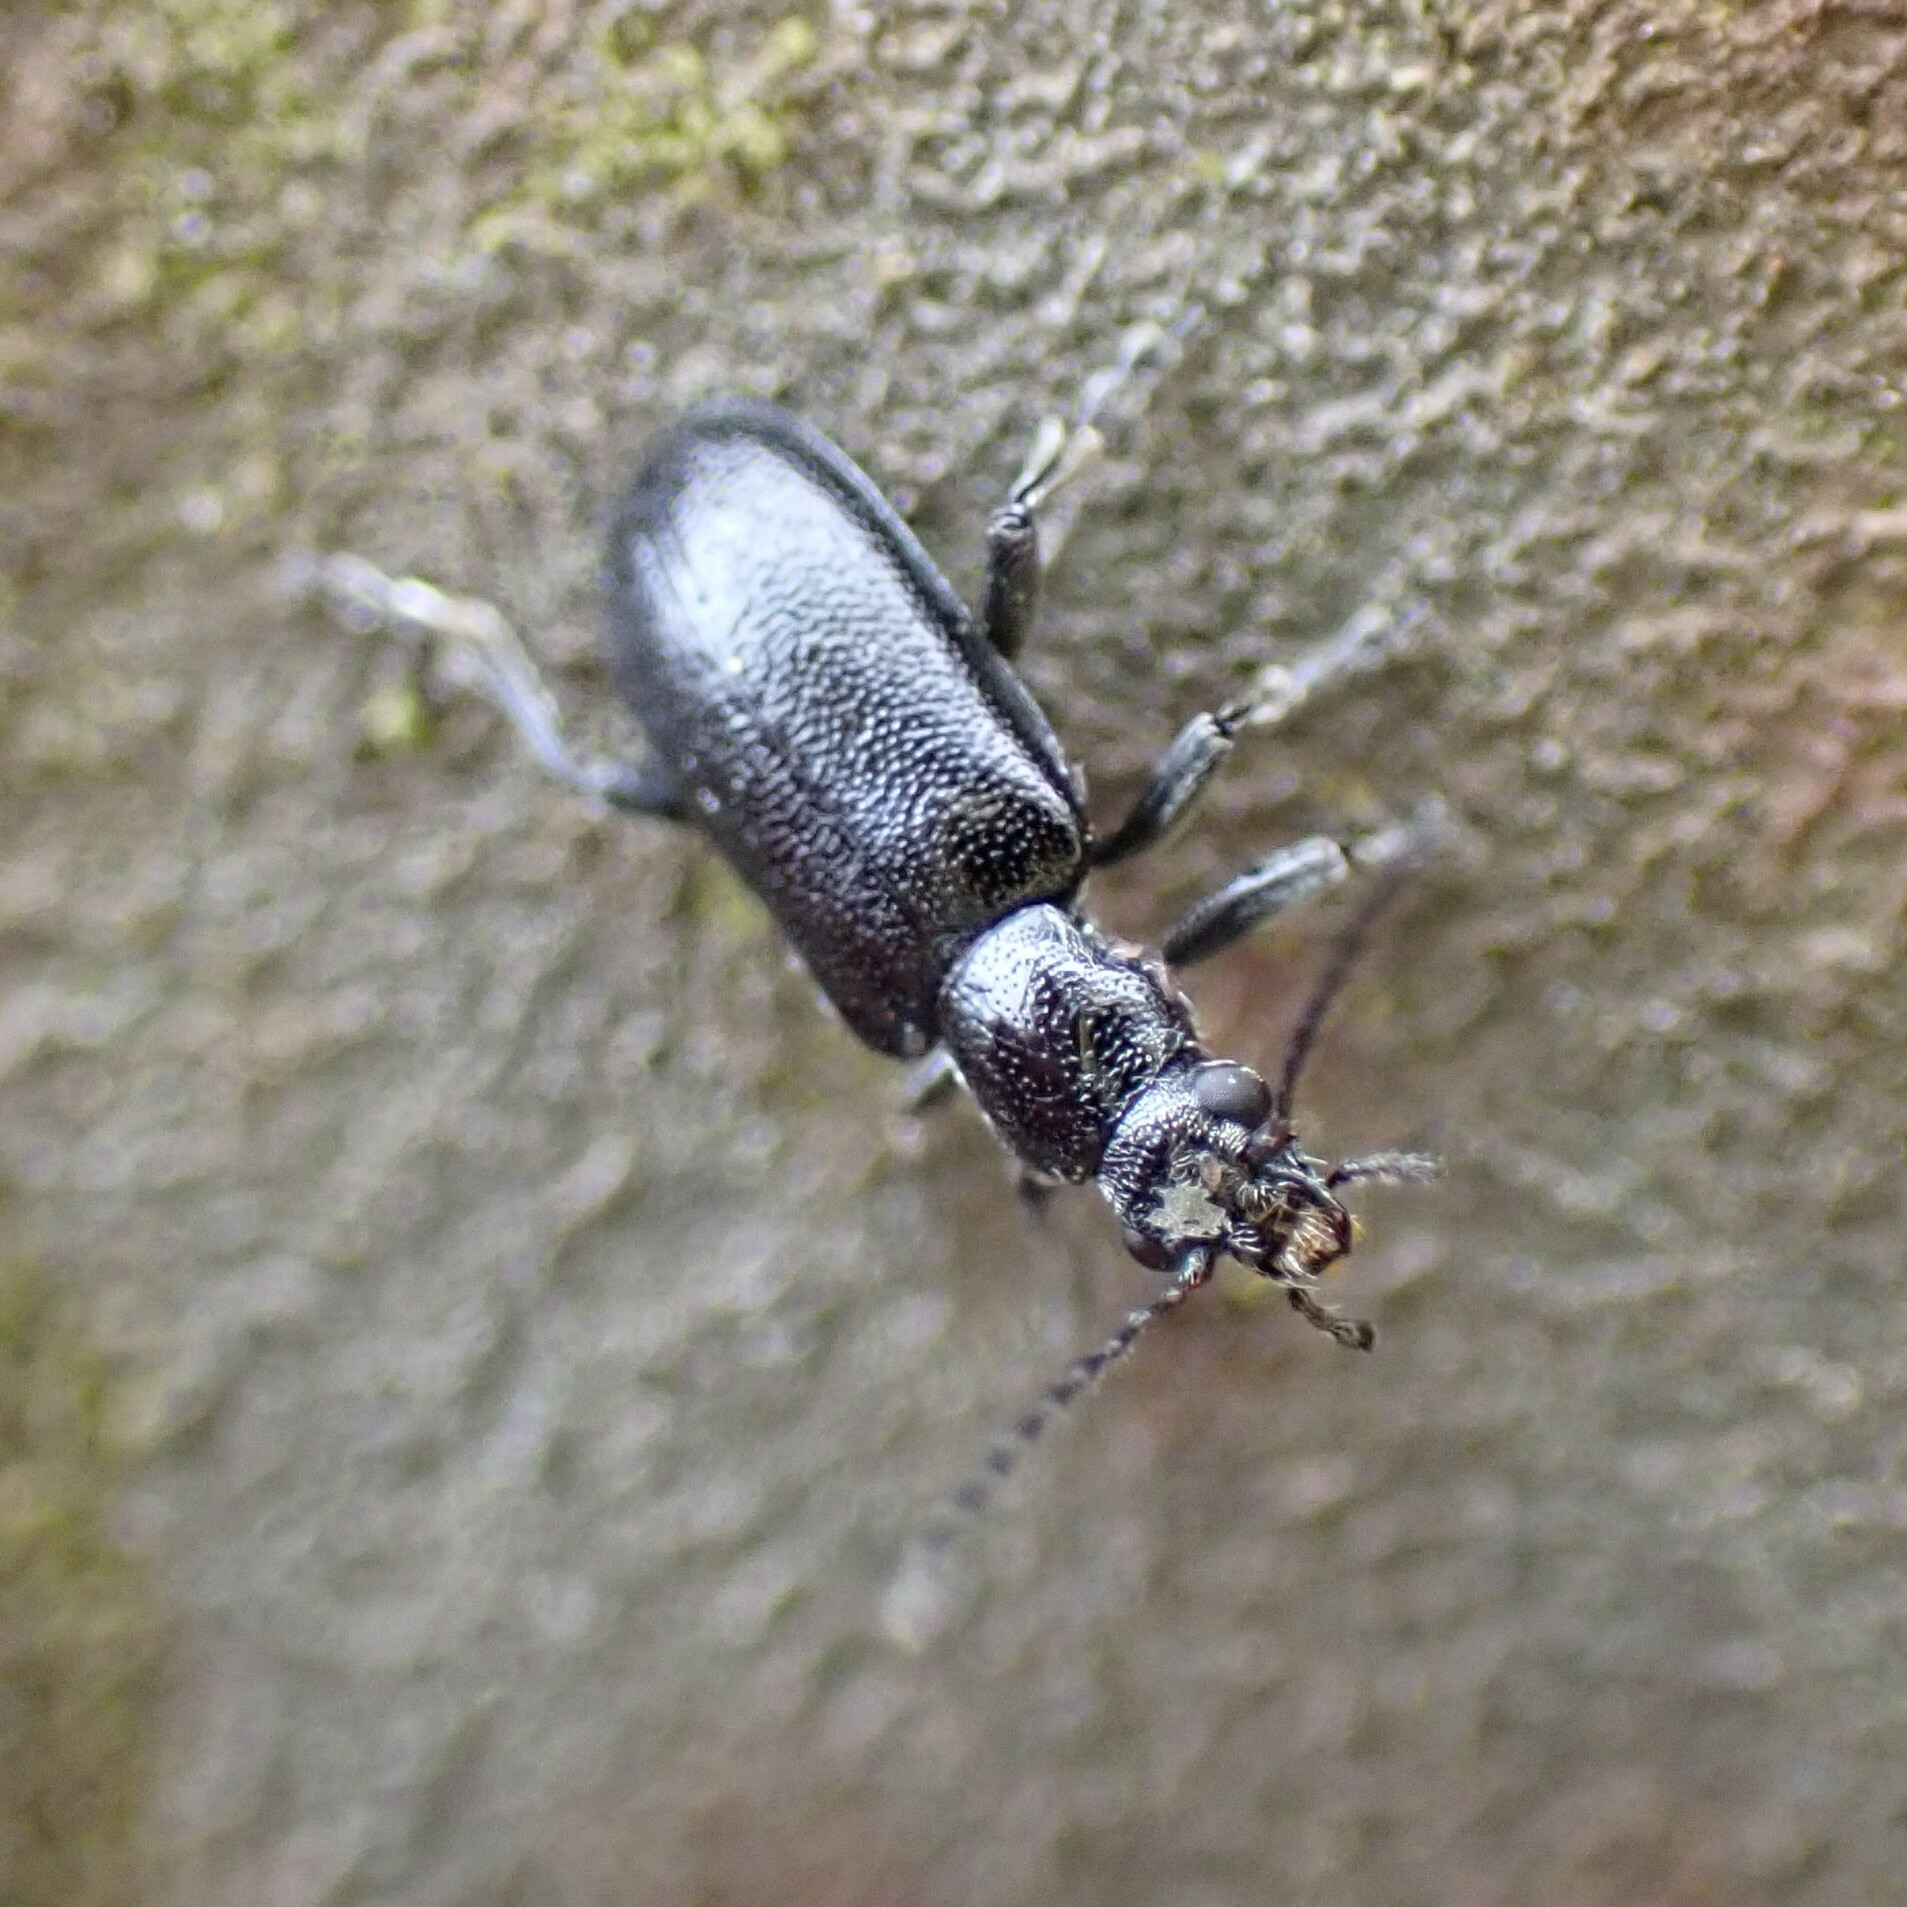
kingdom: Animalia
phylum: Arthropoda
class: Insecta
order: Coleoptera
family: Orsodacnidae
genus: Orsodacne
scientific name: Orsodacne atra
